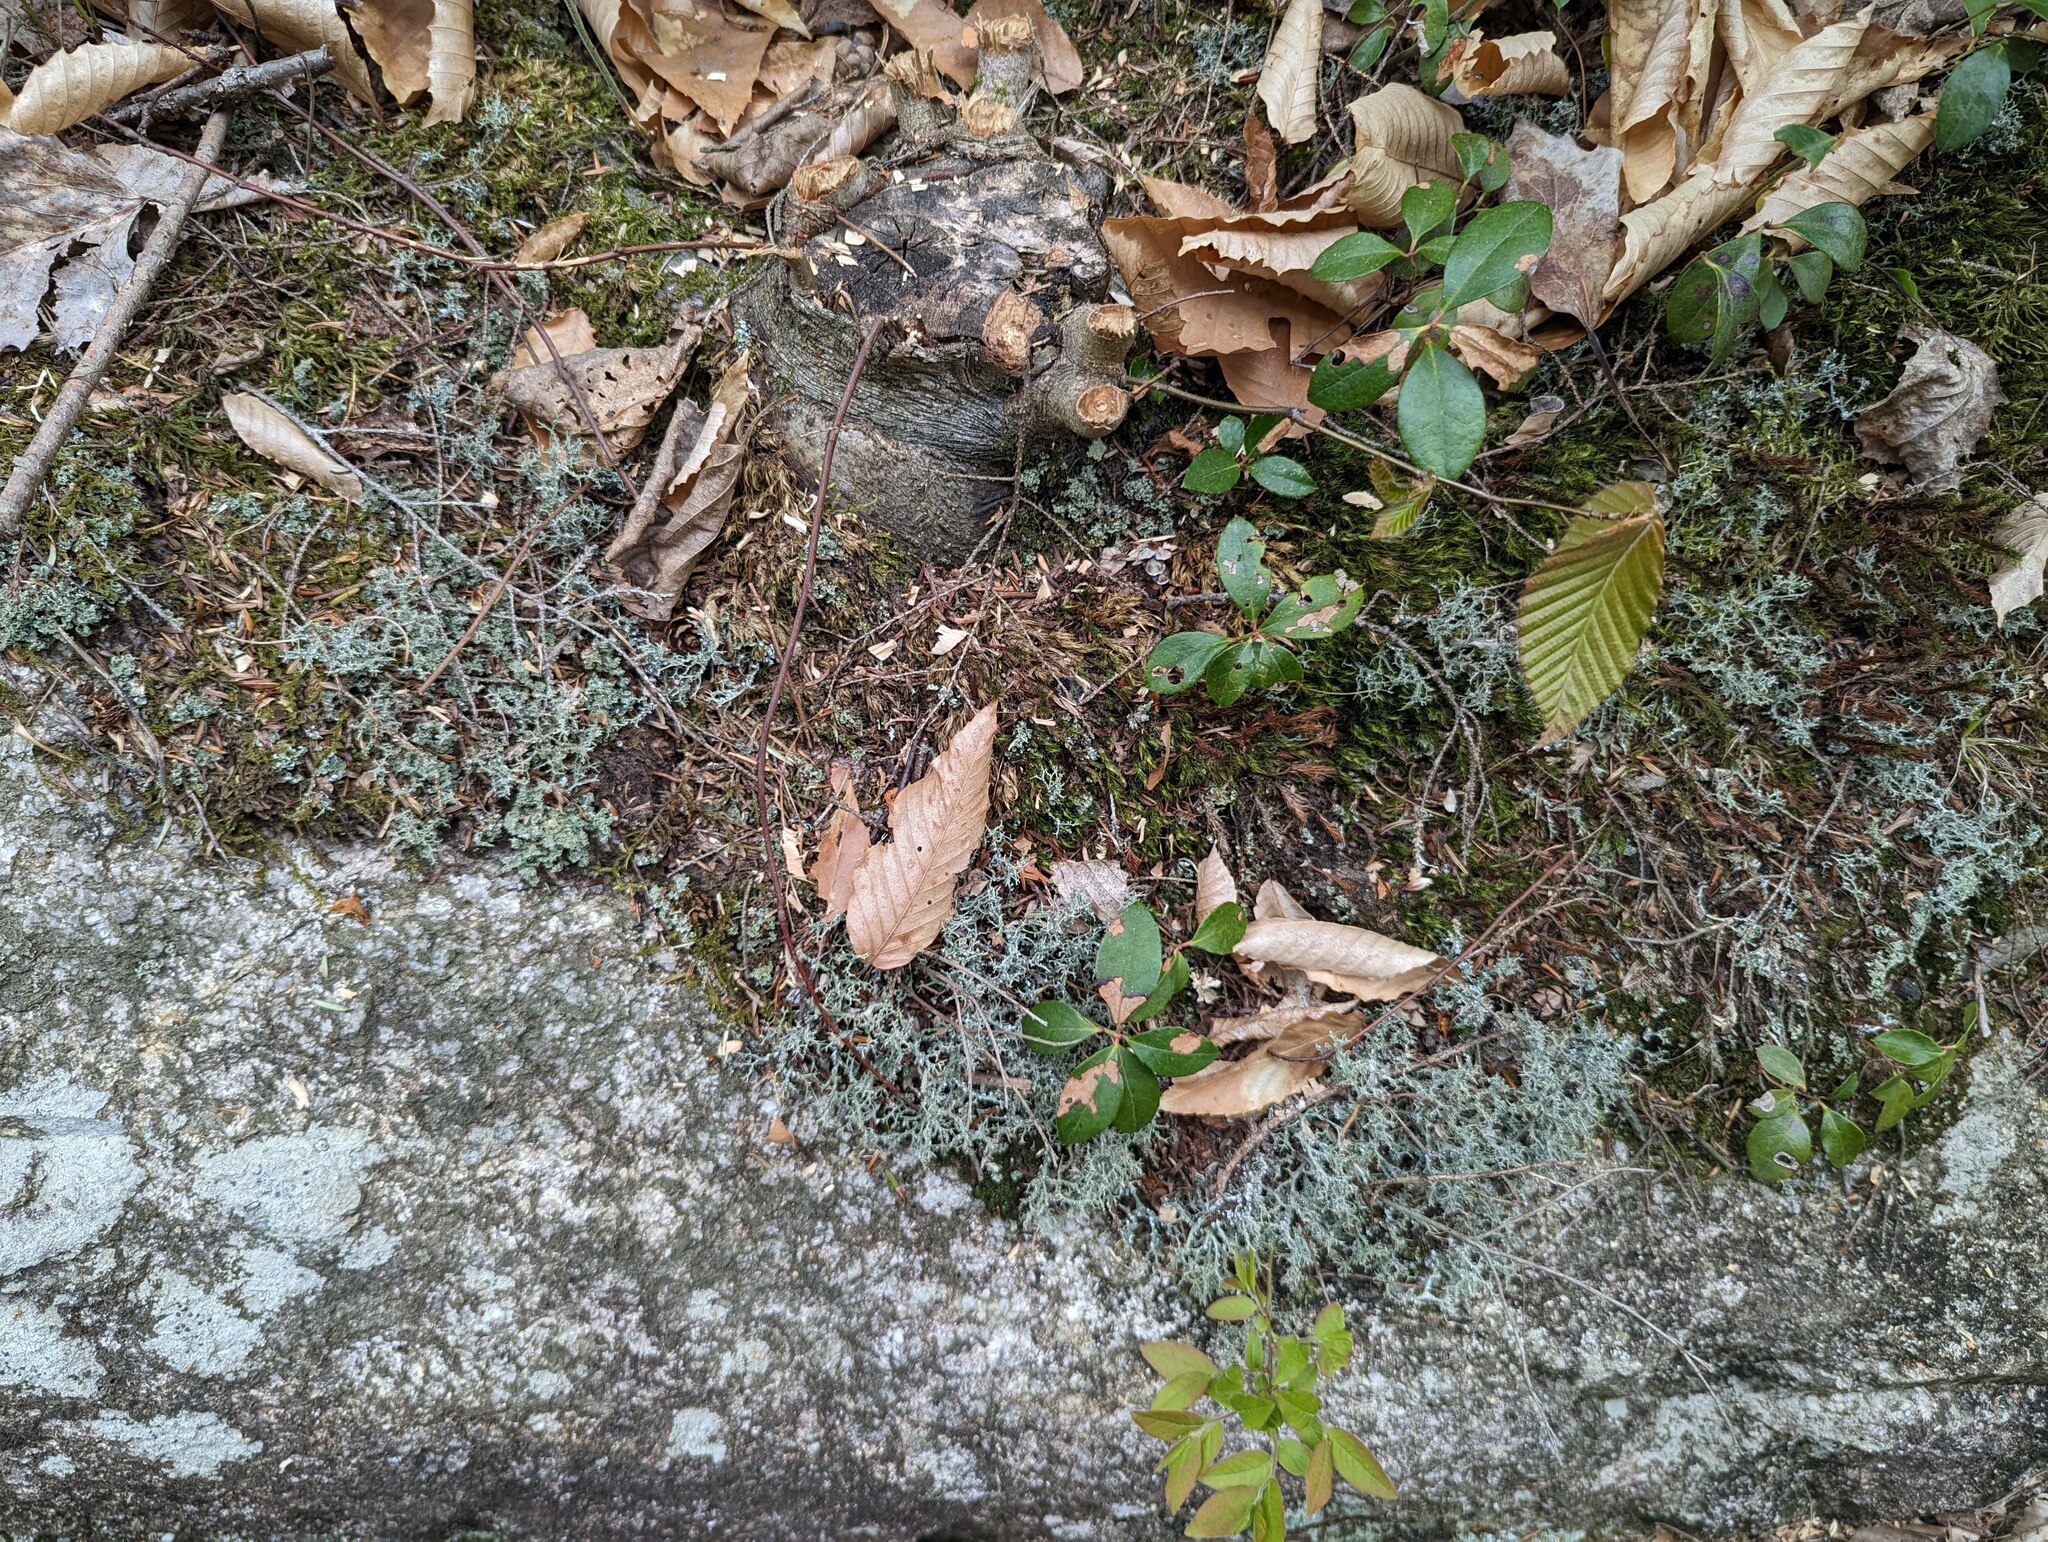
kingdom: Plantae
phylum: Tracheophyta
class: Magnoliopsida
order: Ericales
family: Ericaceae
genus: Gaultheria
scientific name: Gaultheria procumbens
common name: Checkerberry
